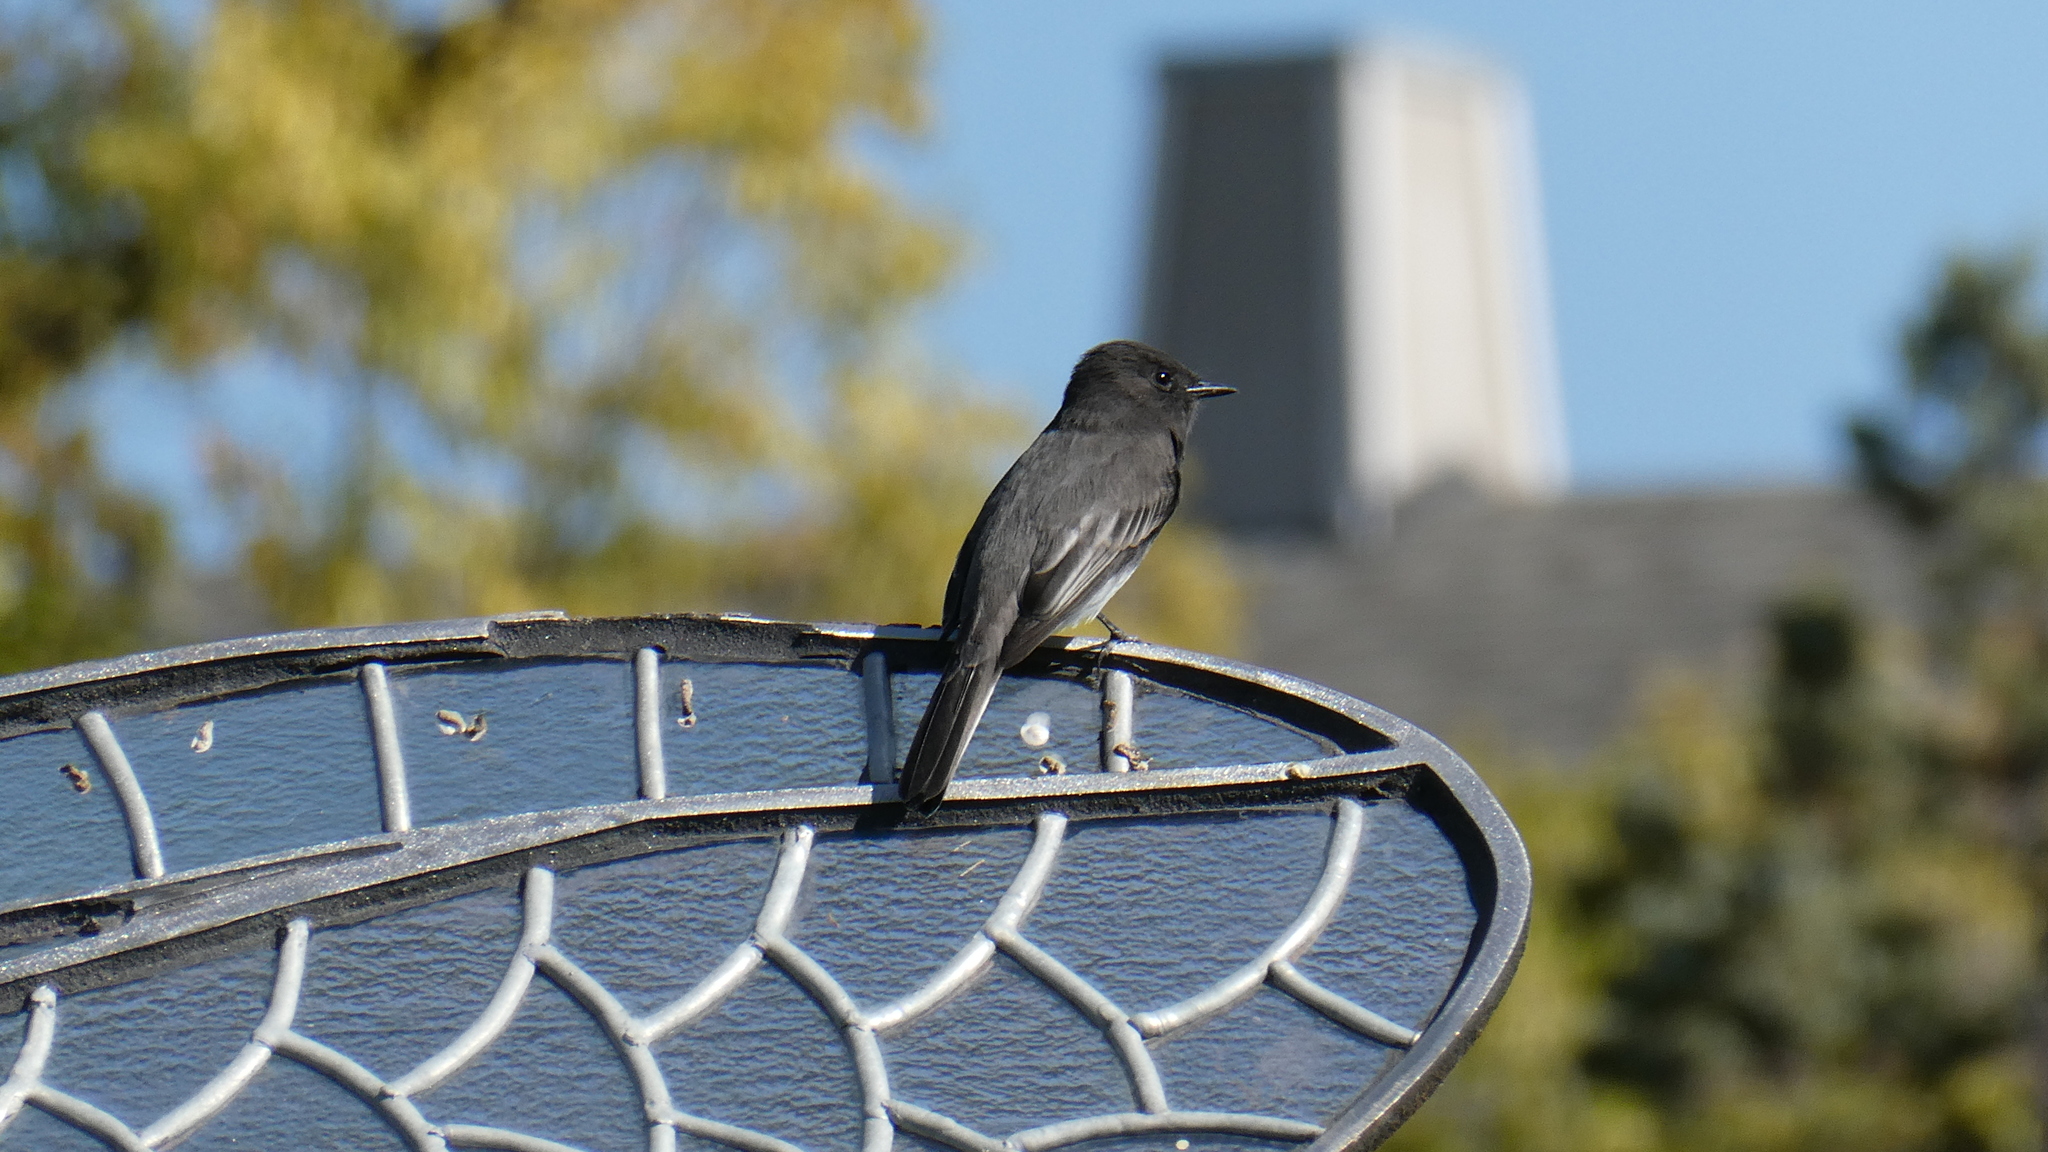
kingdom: Animalia
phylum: Chordata
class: Aves
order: Passeriformes
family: Tyrannidae
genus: Sayornis
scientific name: Sayornis nigricans
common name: Black phoebe
